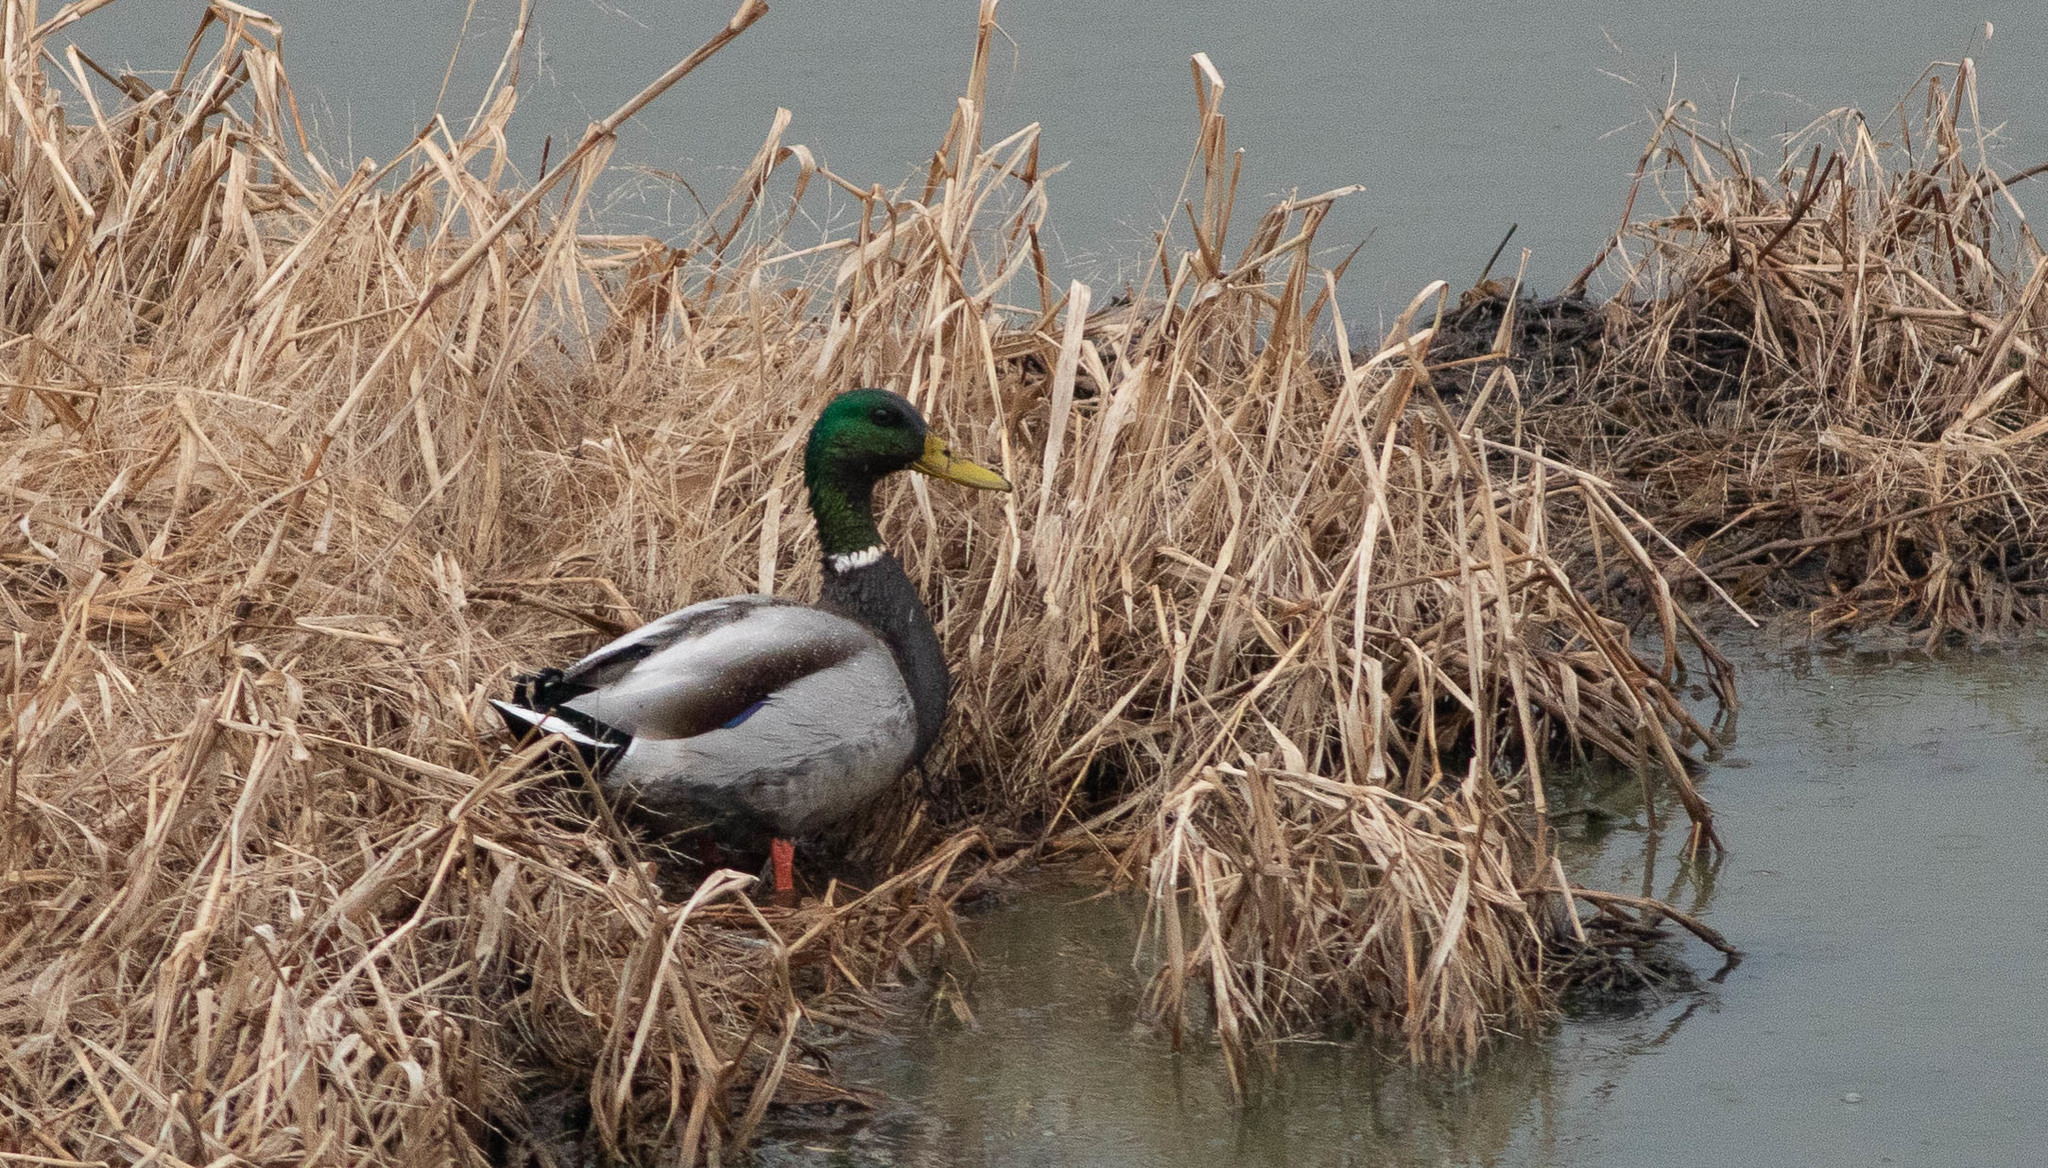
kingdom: Animalia
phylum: Chordata
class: Aves
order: Anseriformes
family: Anatidae
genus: Anas
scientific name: Anas platyrhynchos
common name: Mallard
